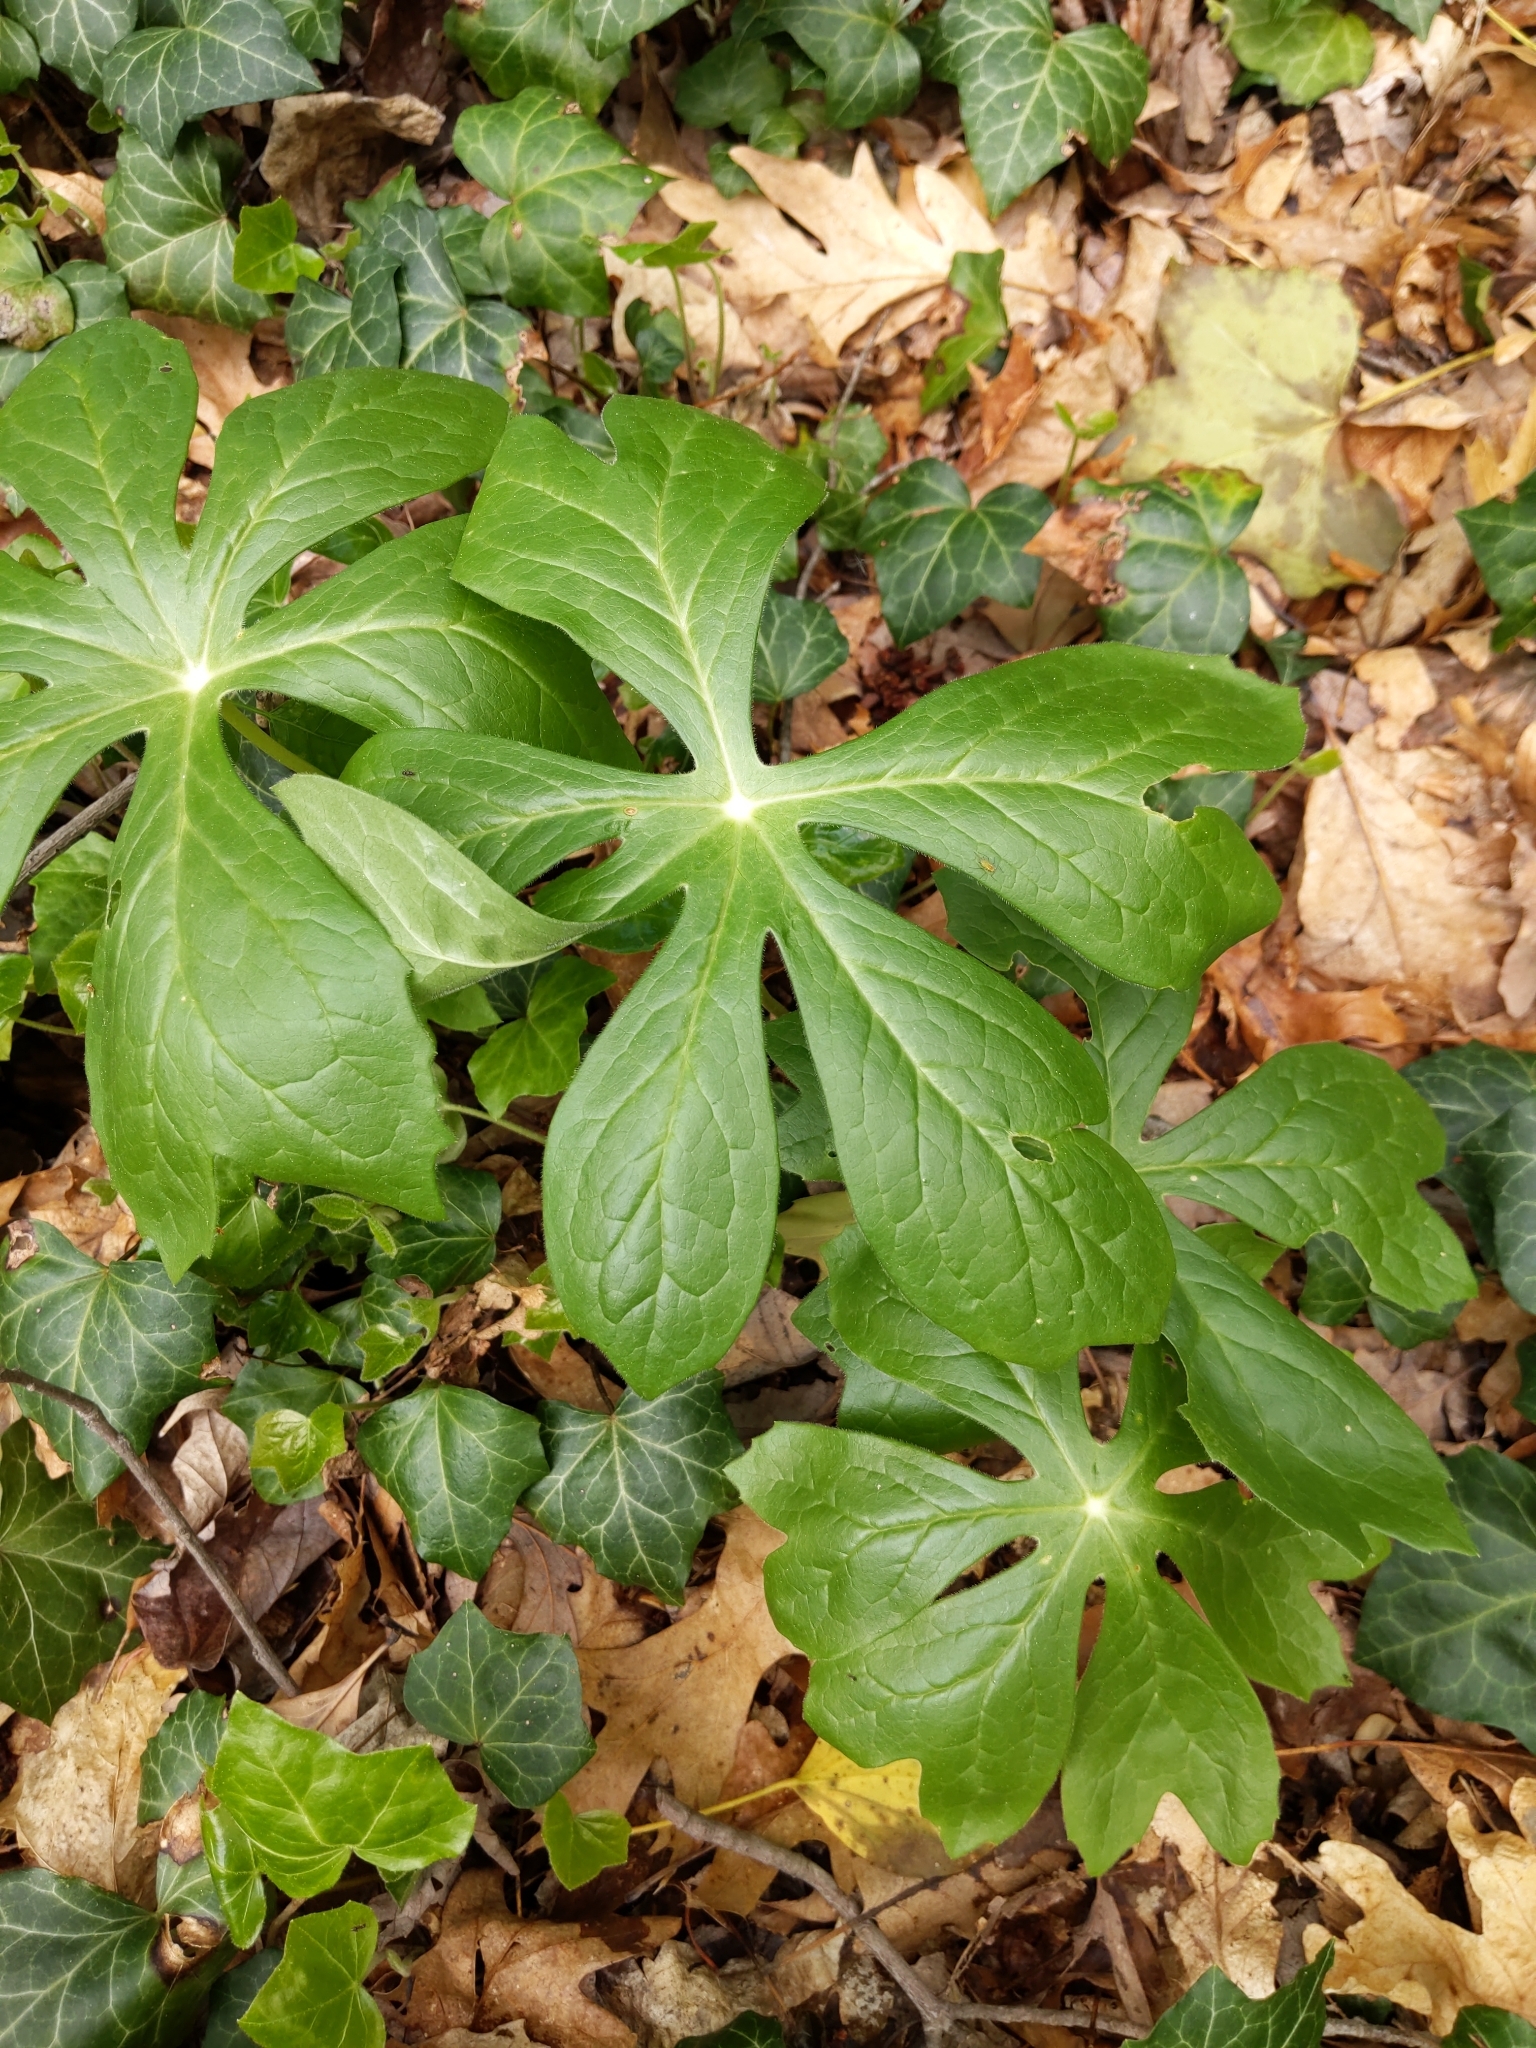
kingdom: Plantae
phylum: Tracheophyta
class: Magnoliopsida
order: Ranunculales
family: Berberidaceae
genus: Podophyllum
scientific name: Podophyllum peltatum
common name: Wild mandrake
